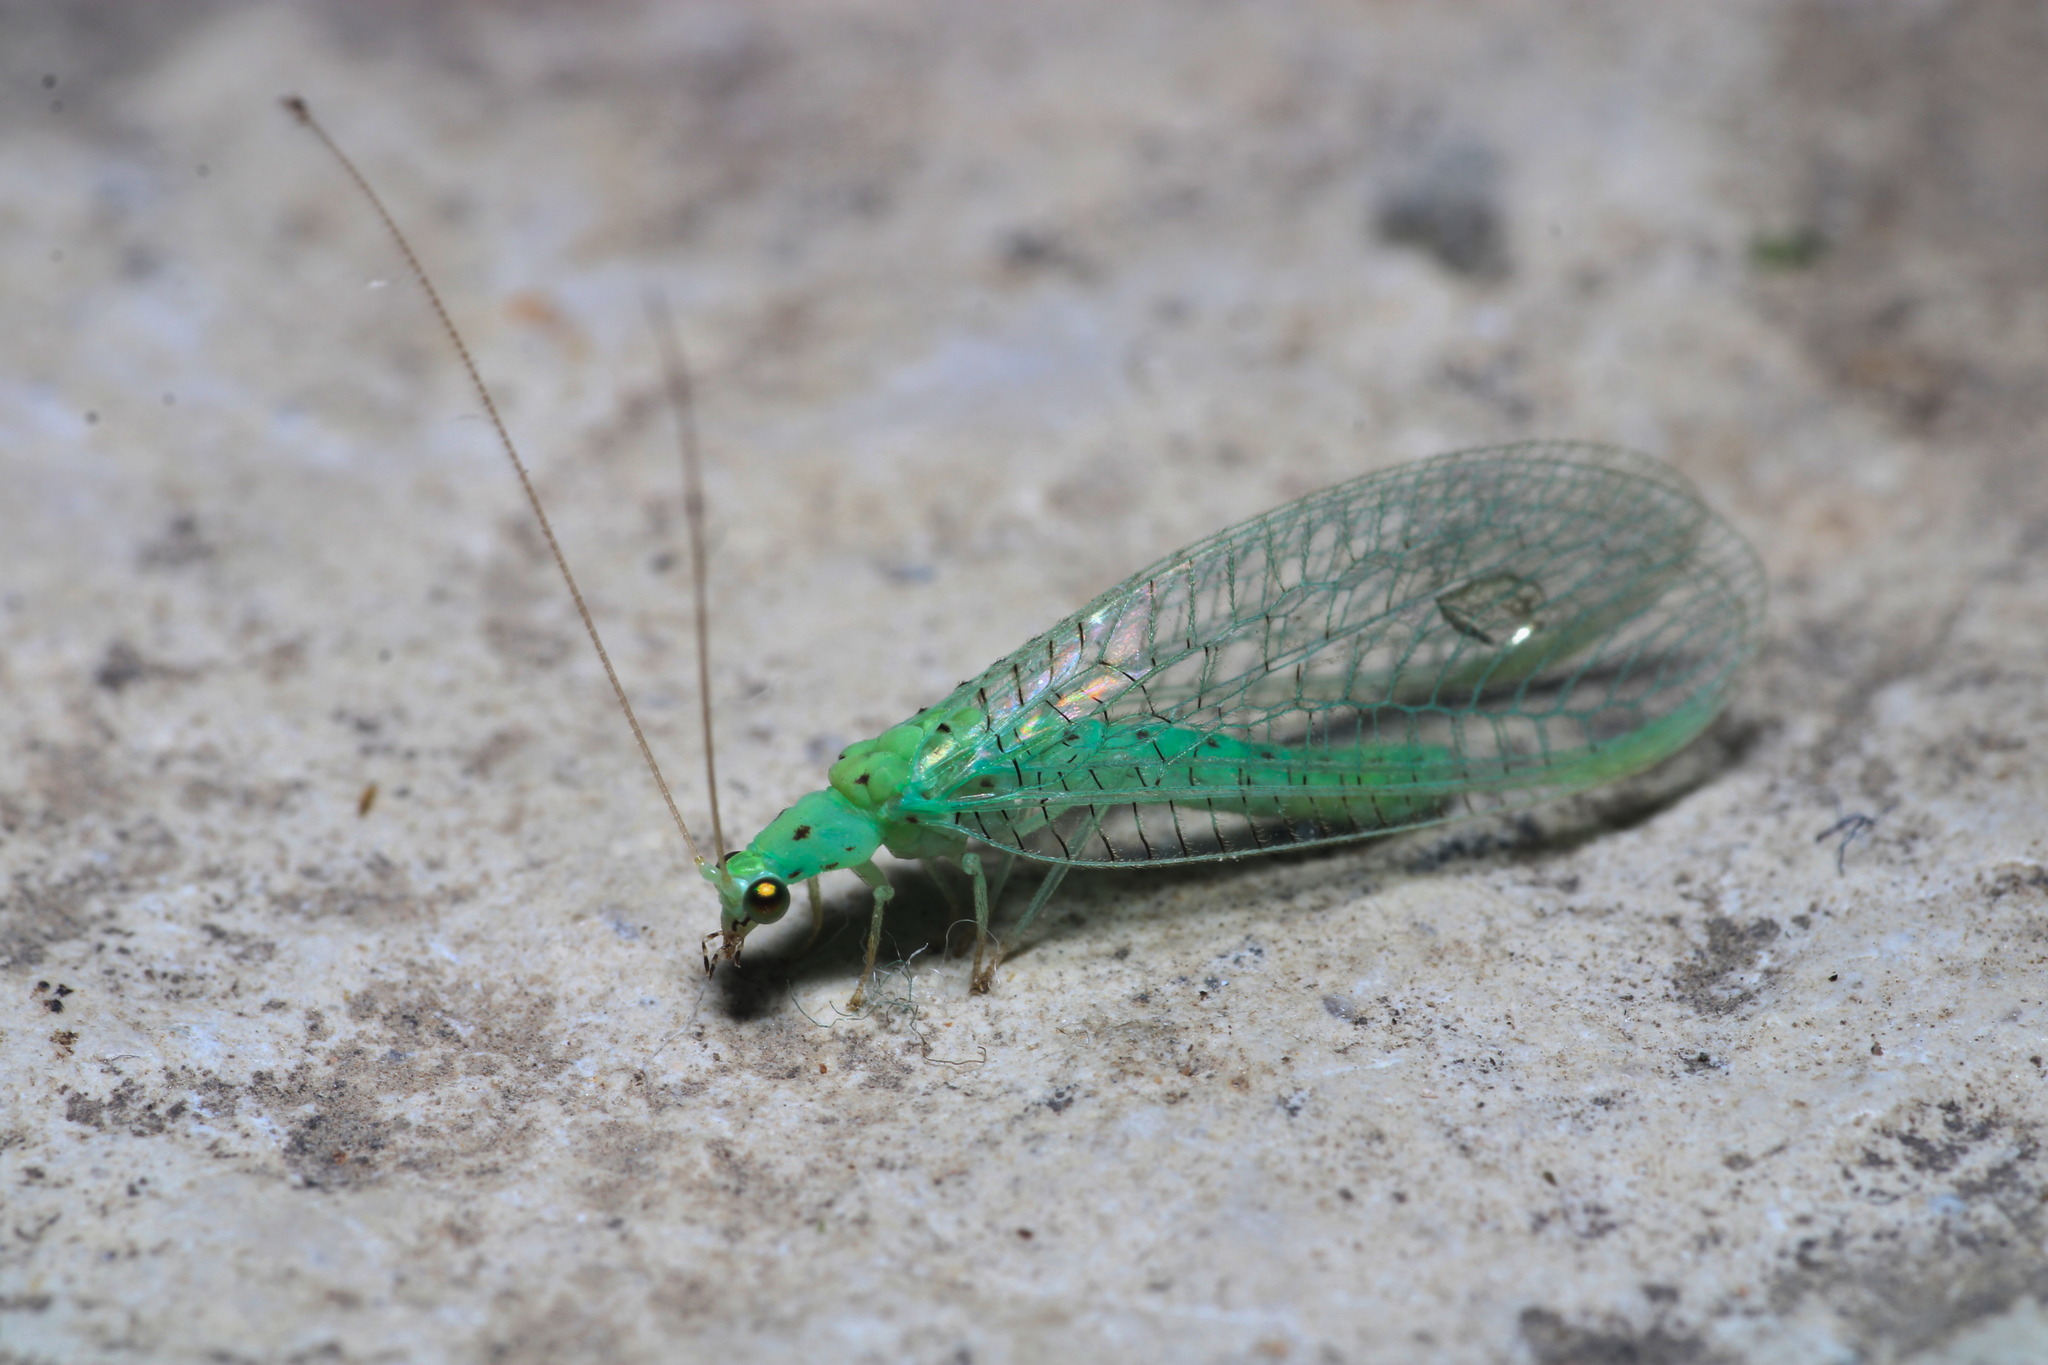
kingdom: Animalia
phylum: Arthropoda
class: Insecta
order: Neuroptera
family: Chrysopidae
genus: Pseudomallada
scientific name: Pseudomallada prasinus
